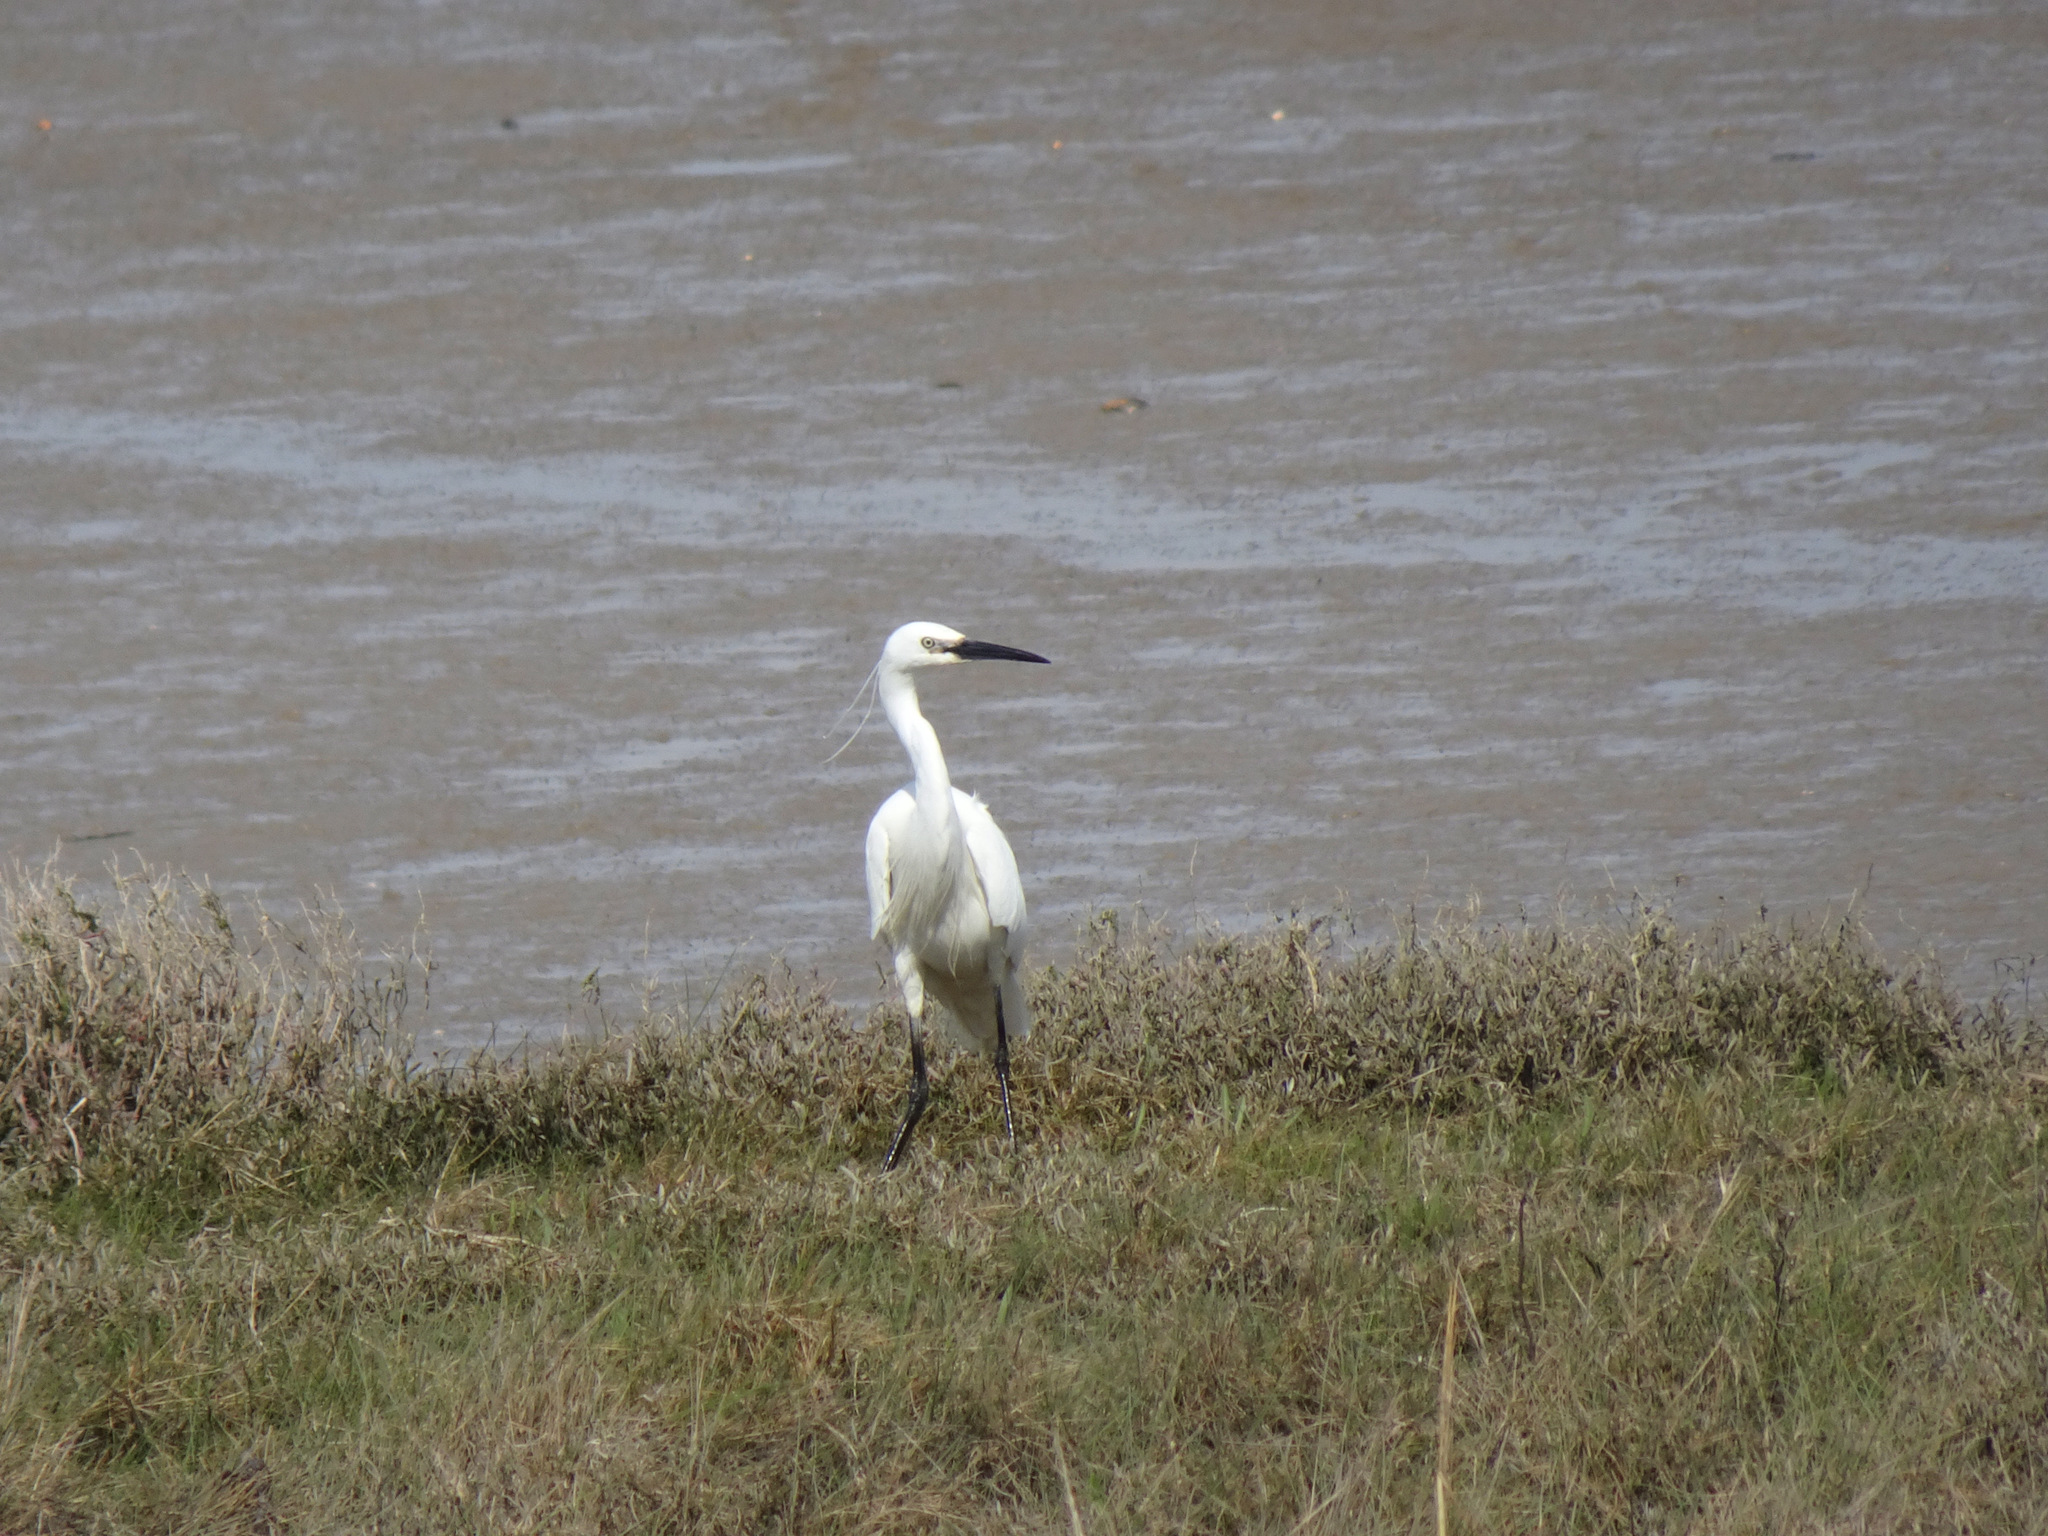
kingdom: Animalia
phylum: Chordata
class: Aves
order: Pelecaniformes
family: Ardeidae
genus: Egretta
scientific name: Egretta garzetta
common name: Little egret
